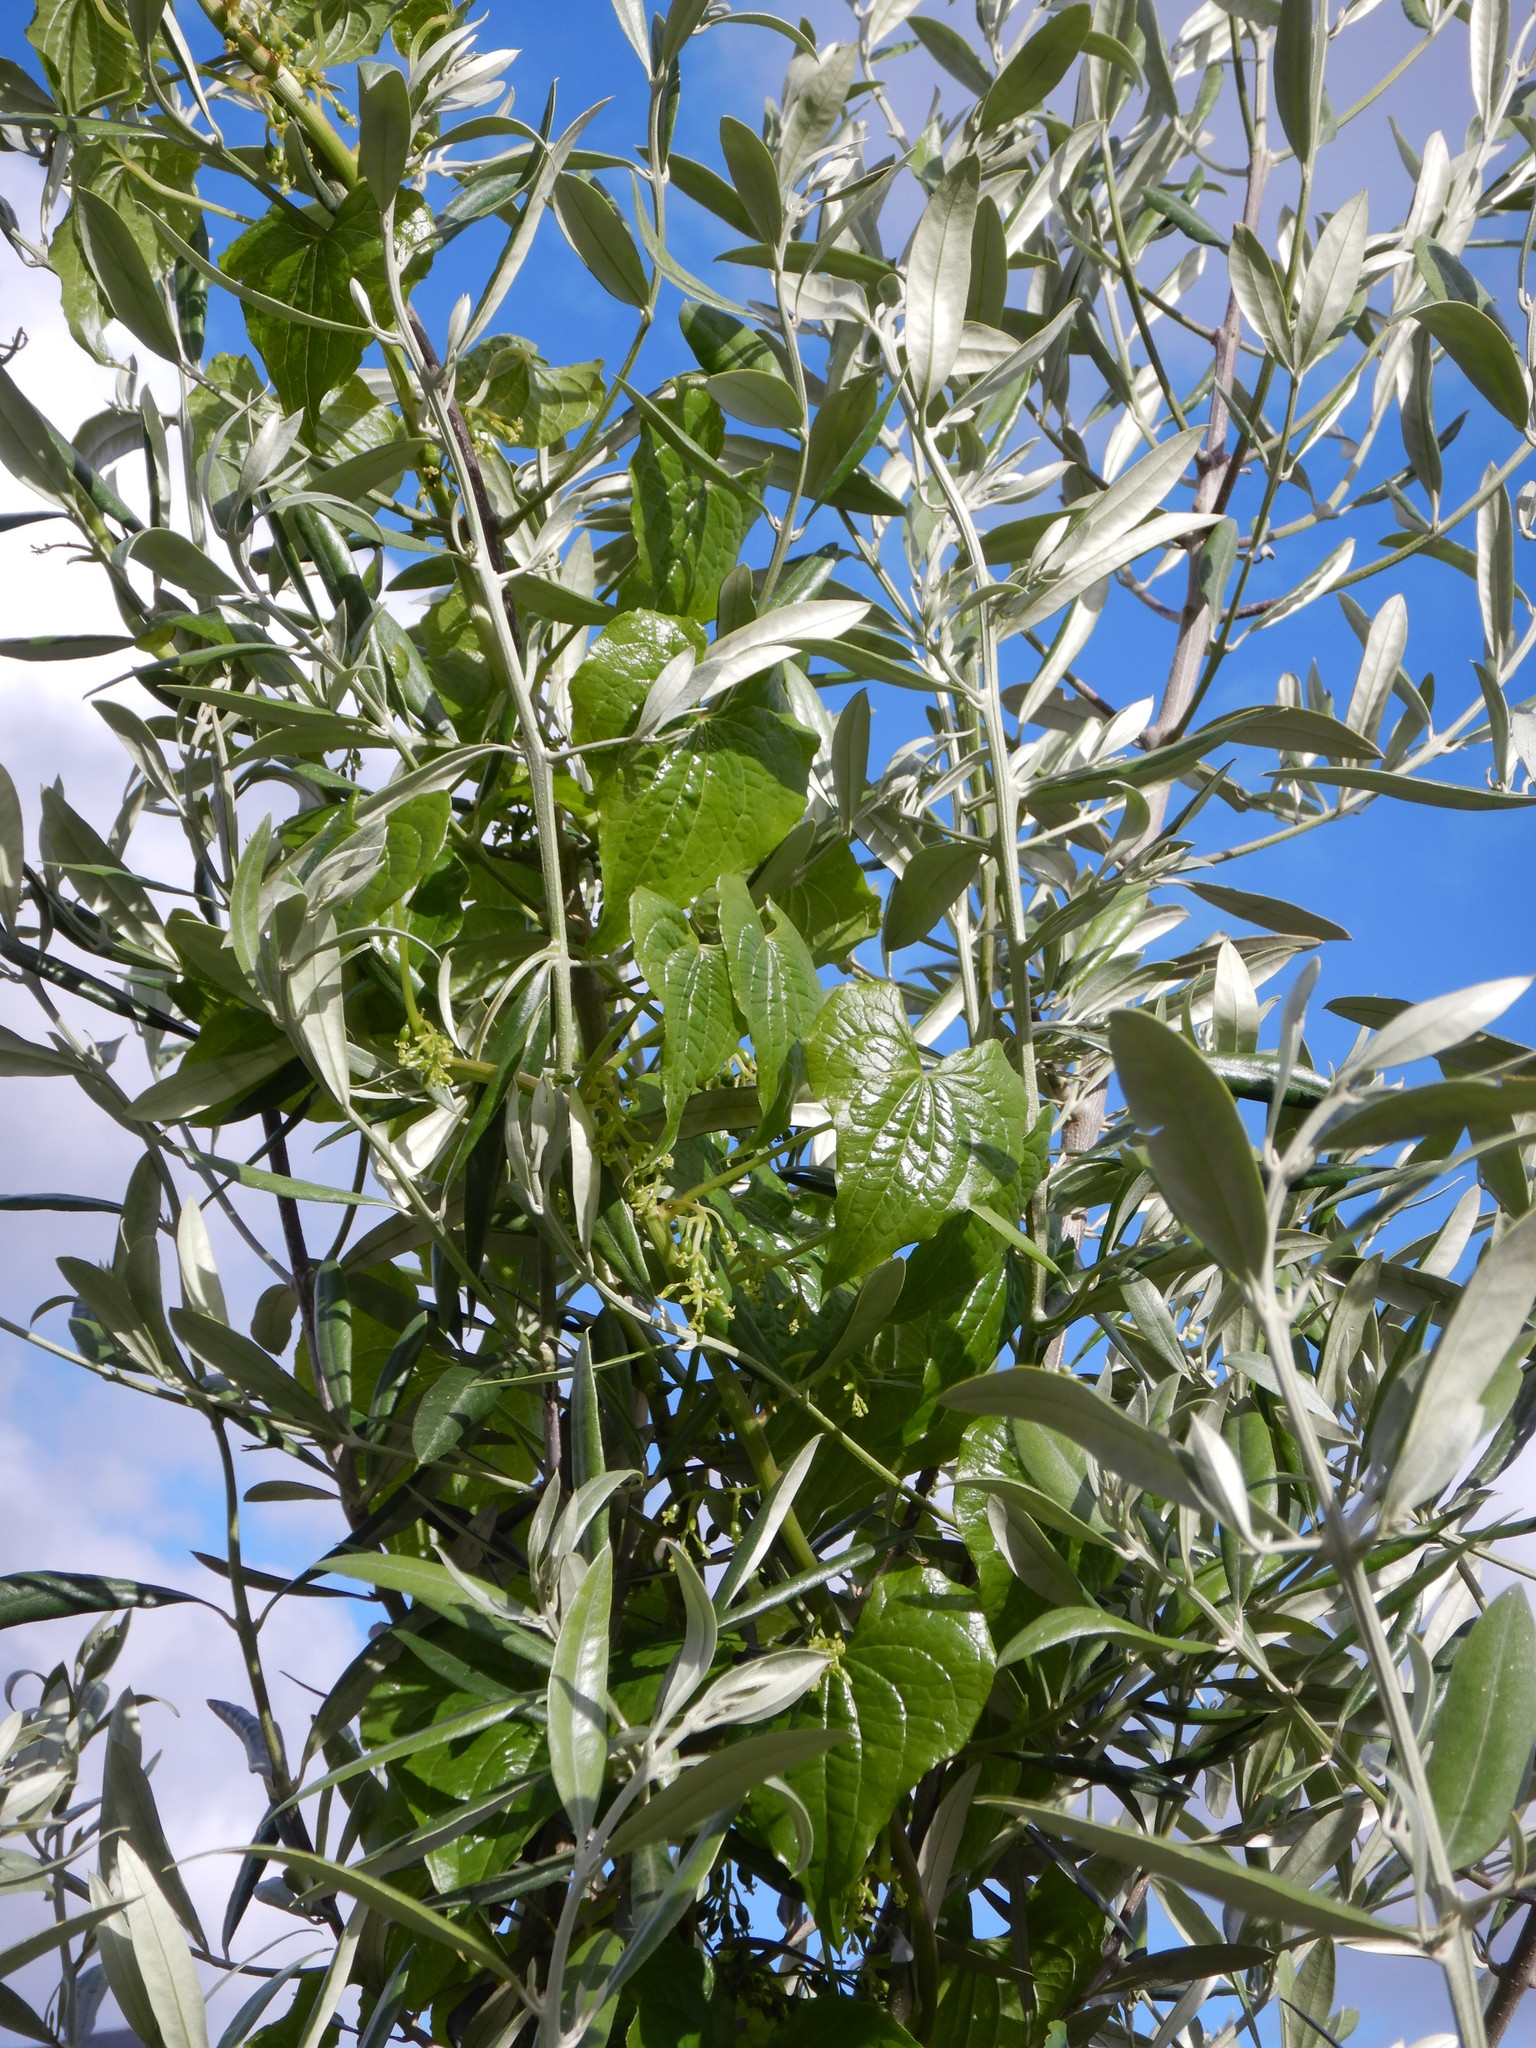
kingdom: Plantae
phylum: Tracheophyta
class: Liliopsida
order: Dioscoreales
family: Dioscoreaceae
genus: Dioscorea
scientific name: Dioscorea communis
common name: Black-bindweed
